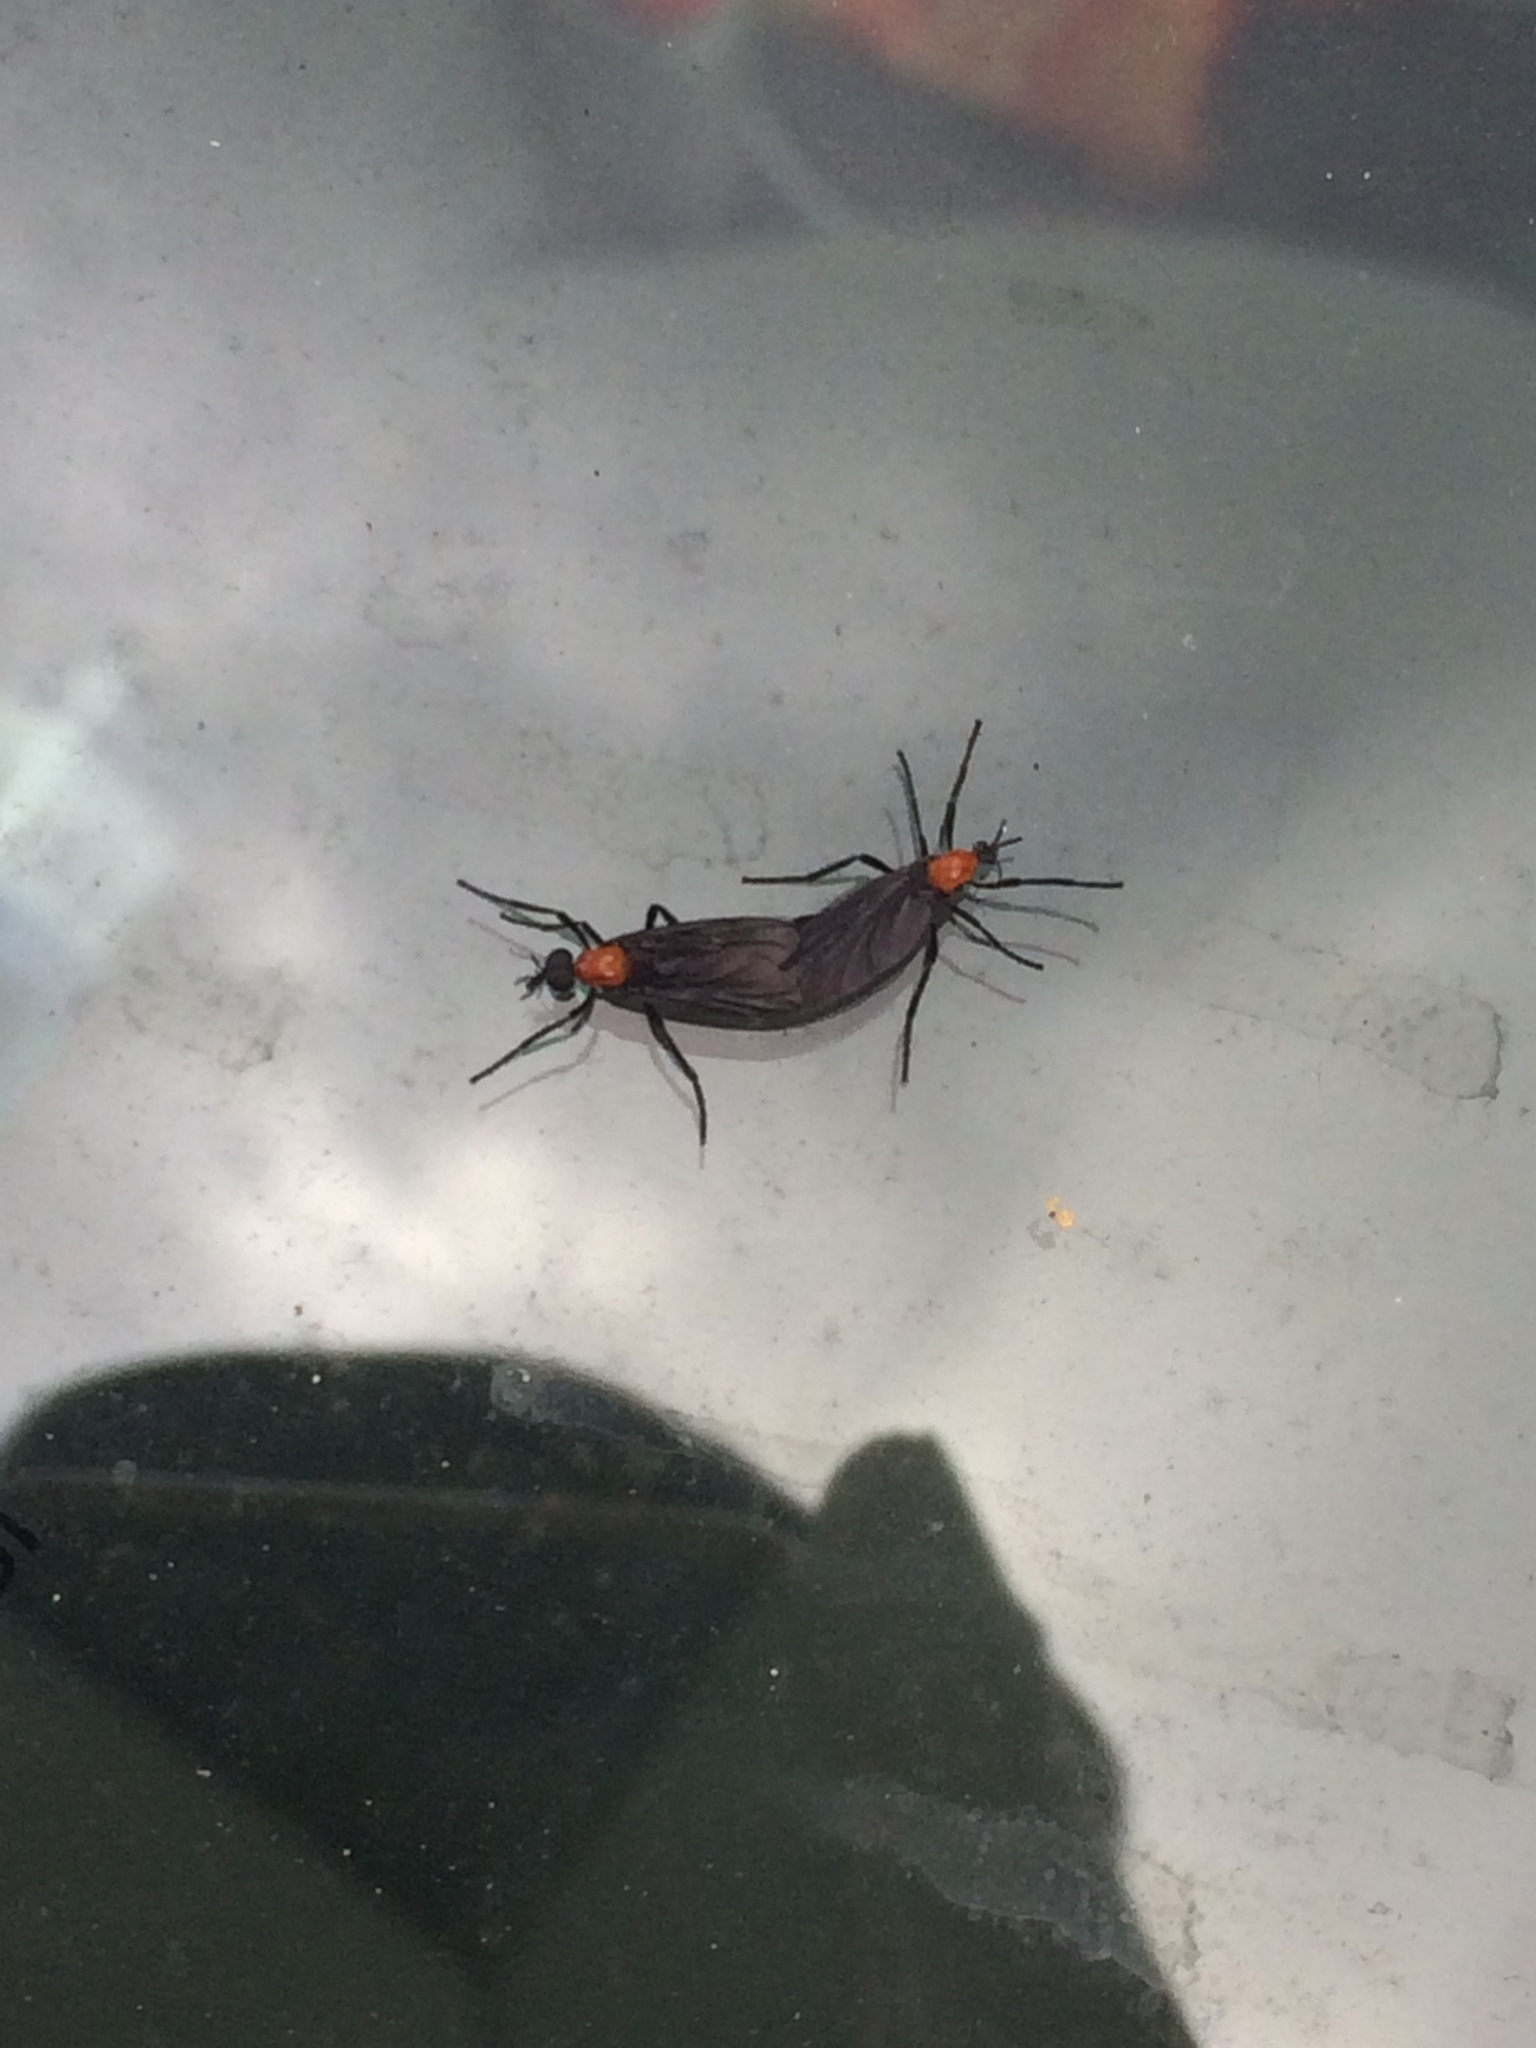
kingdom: Animalia
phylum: Arthropoda
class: Insecta
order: Diptera
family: Bibionidae
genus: Plecia
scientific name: Plecia nearctica
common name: March fly
